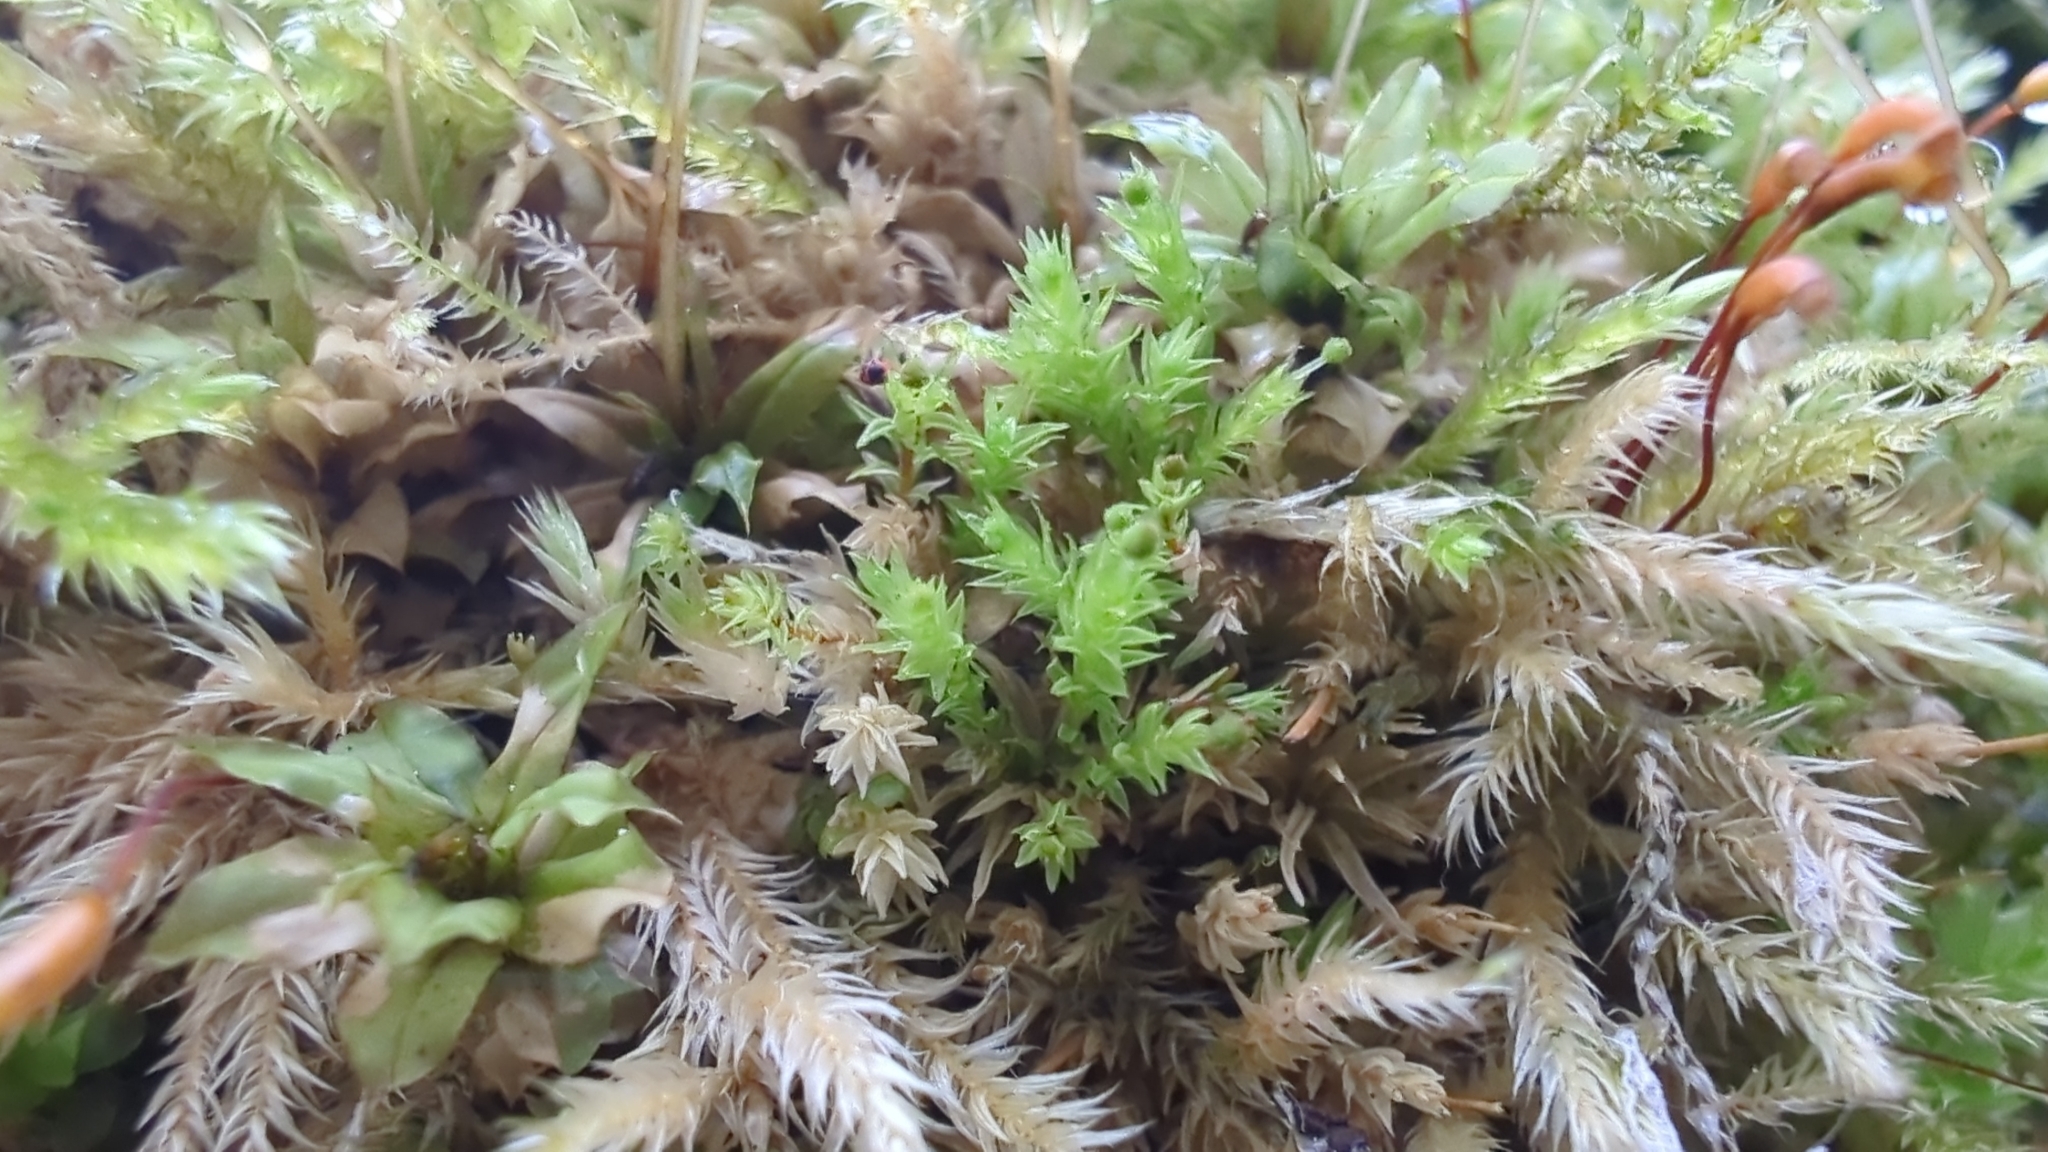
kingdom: Plantae
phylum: Bryophyta
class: Bryopsida
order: Aulacomniales
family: Aulacomniaceae
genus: Aulacomnium
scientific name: Aulacomnium androgynum
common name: Little groove moss
